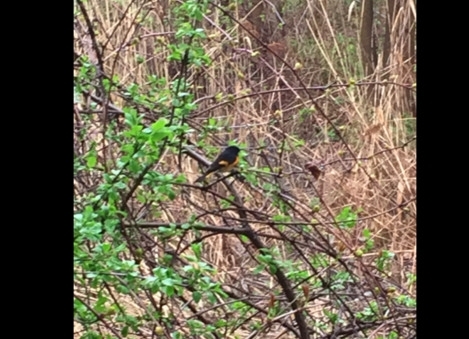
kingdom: Animalia
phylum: Chordata
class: Aves
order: Passeriformes
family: Parulidae
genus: Setophaga
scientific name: Setophaga ruticilla
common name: American redstart
